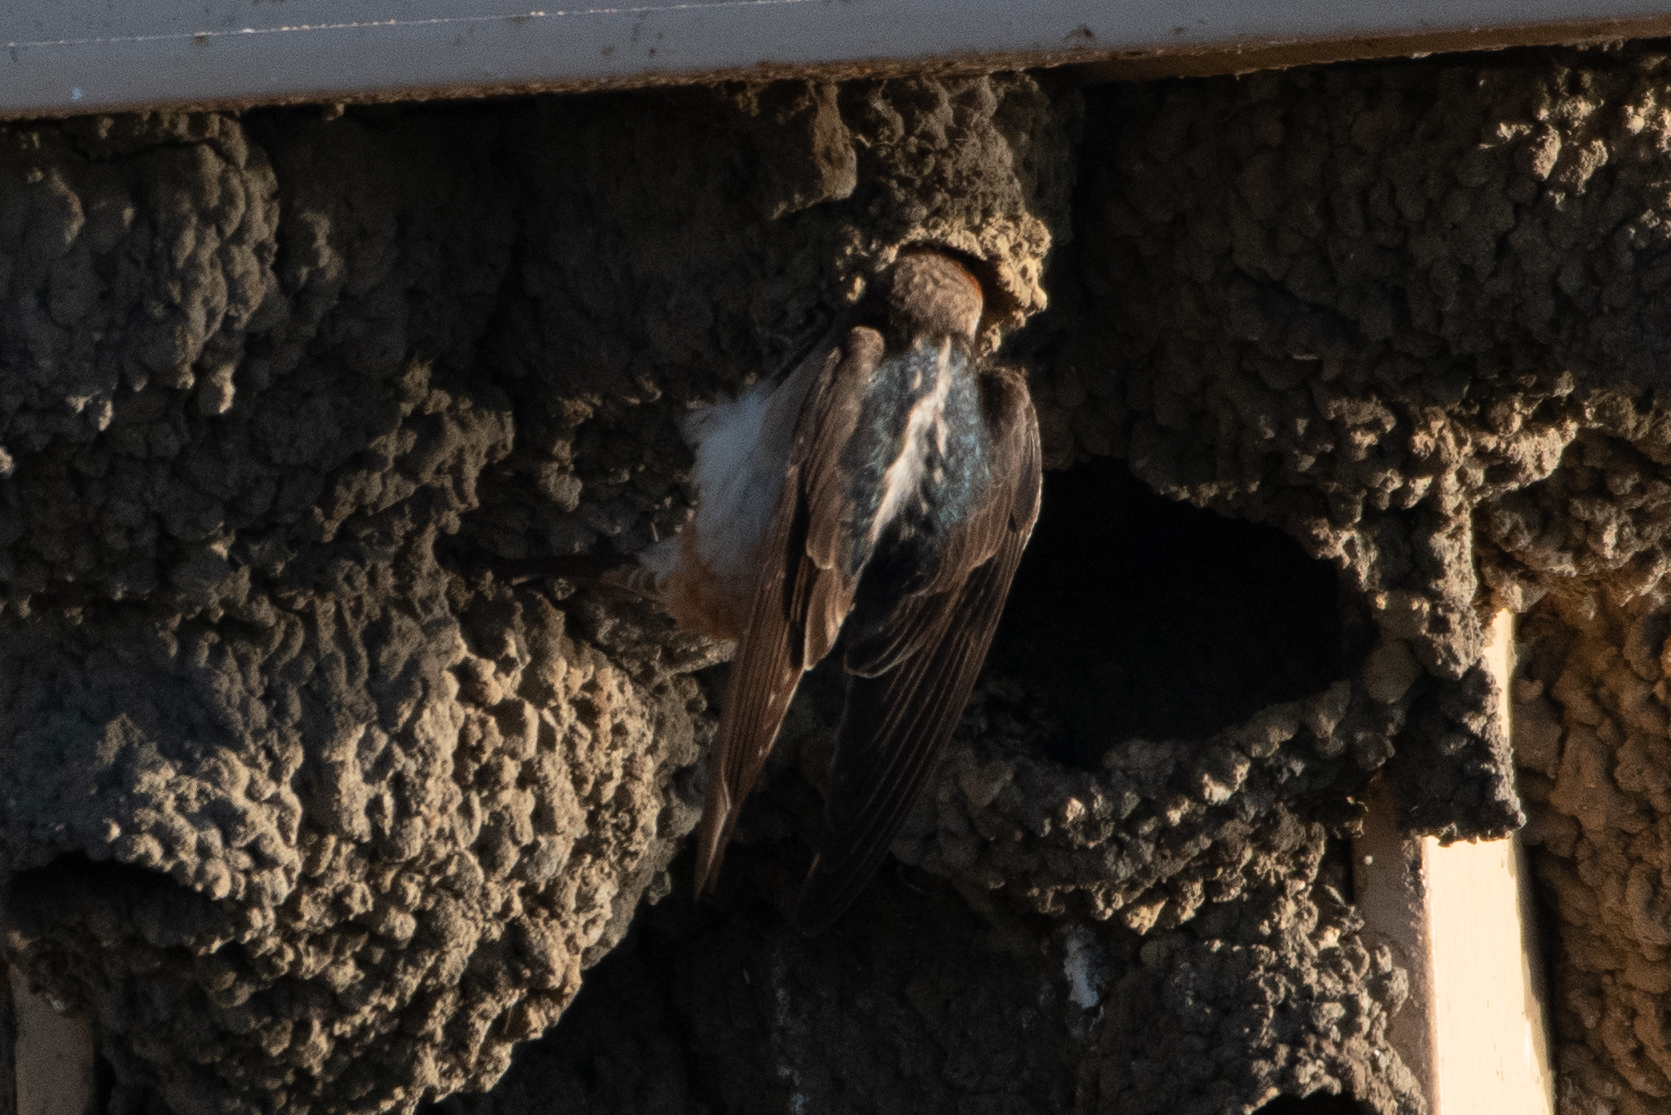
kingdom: Animalia
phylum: Chordata
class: Aves
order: Passeriformes
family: Hirundinidae
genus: Petrochelidon
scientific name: Petrochelidon pyrrhonota
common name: American cliff swallow
